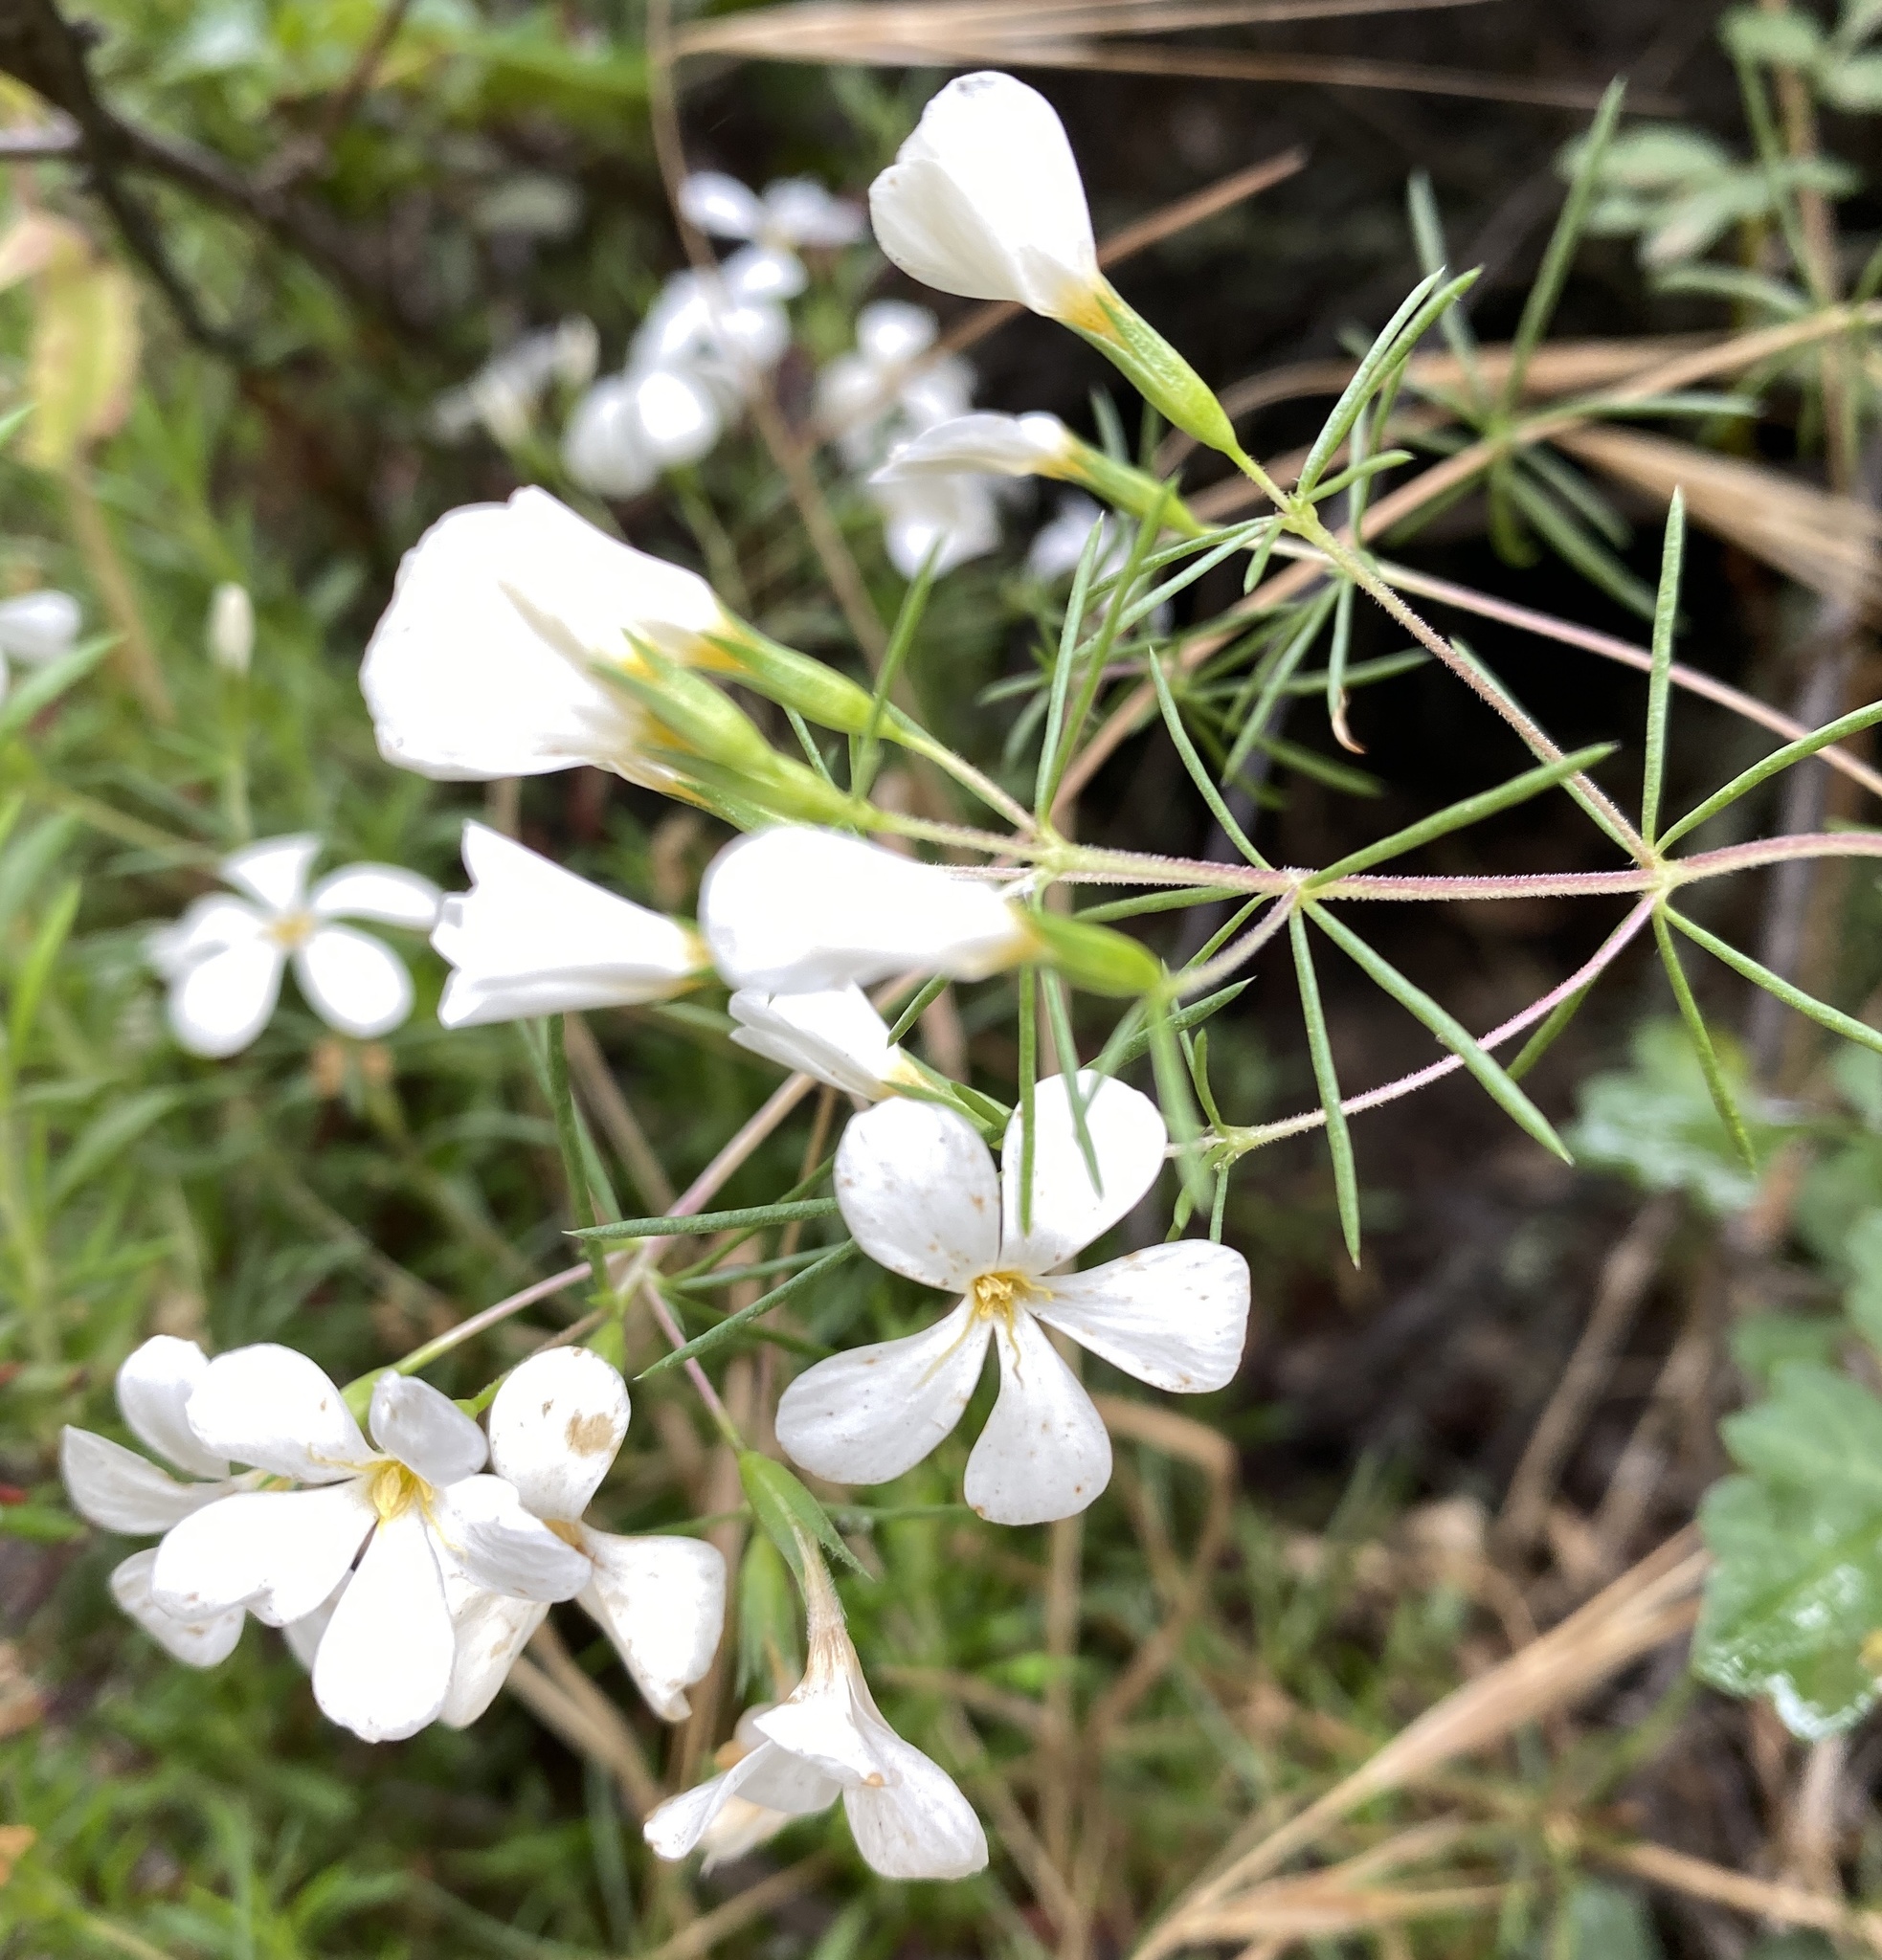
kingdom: Plantae
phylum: Tracheophyta
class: Magnoliopsida
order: Ericales
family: Polemoniaceae
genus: Leptosiphon
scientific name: Leptosiphon floribundum
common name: Many-flower linanthus
